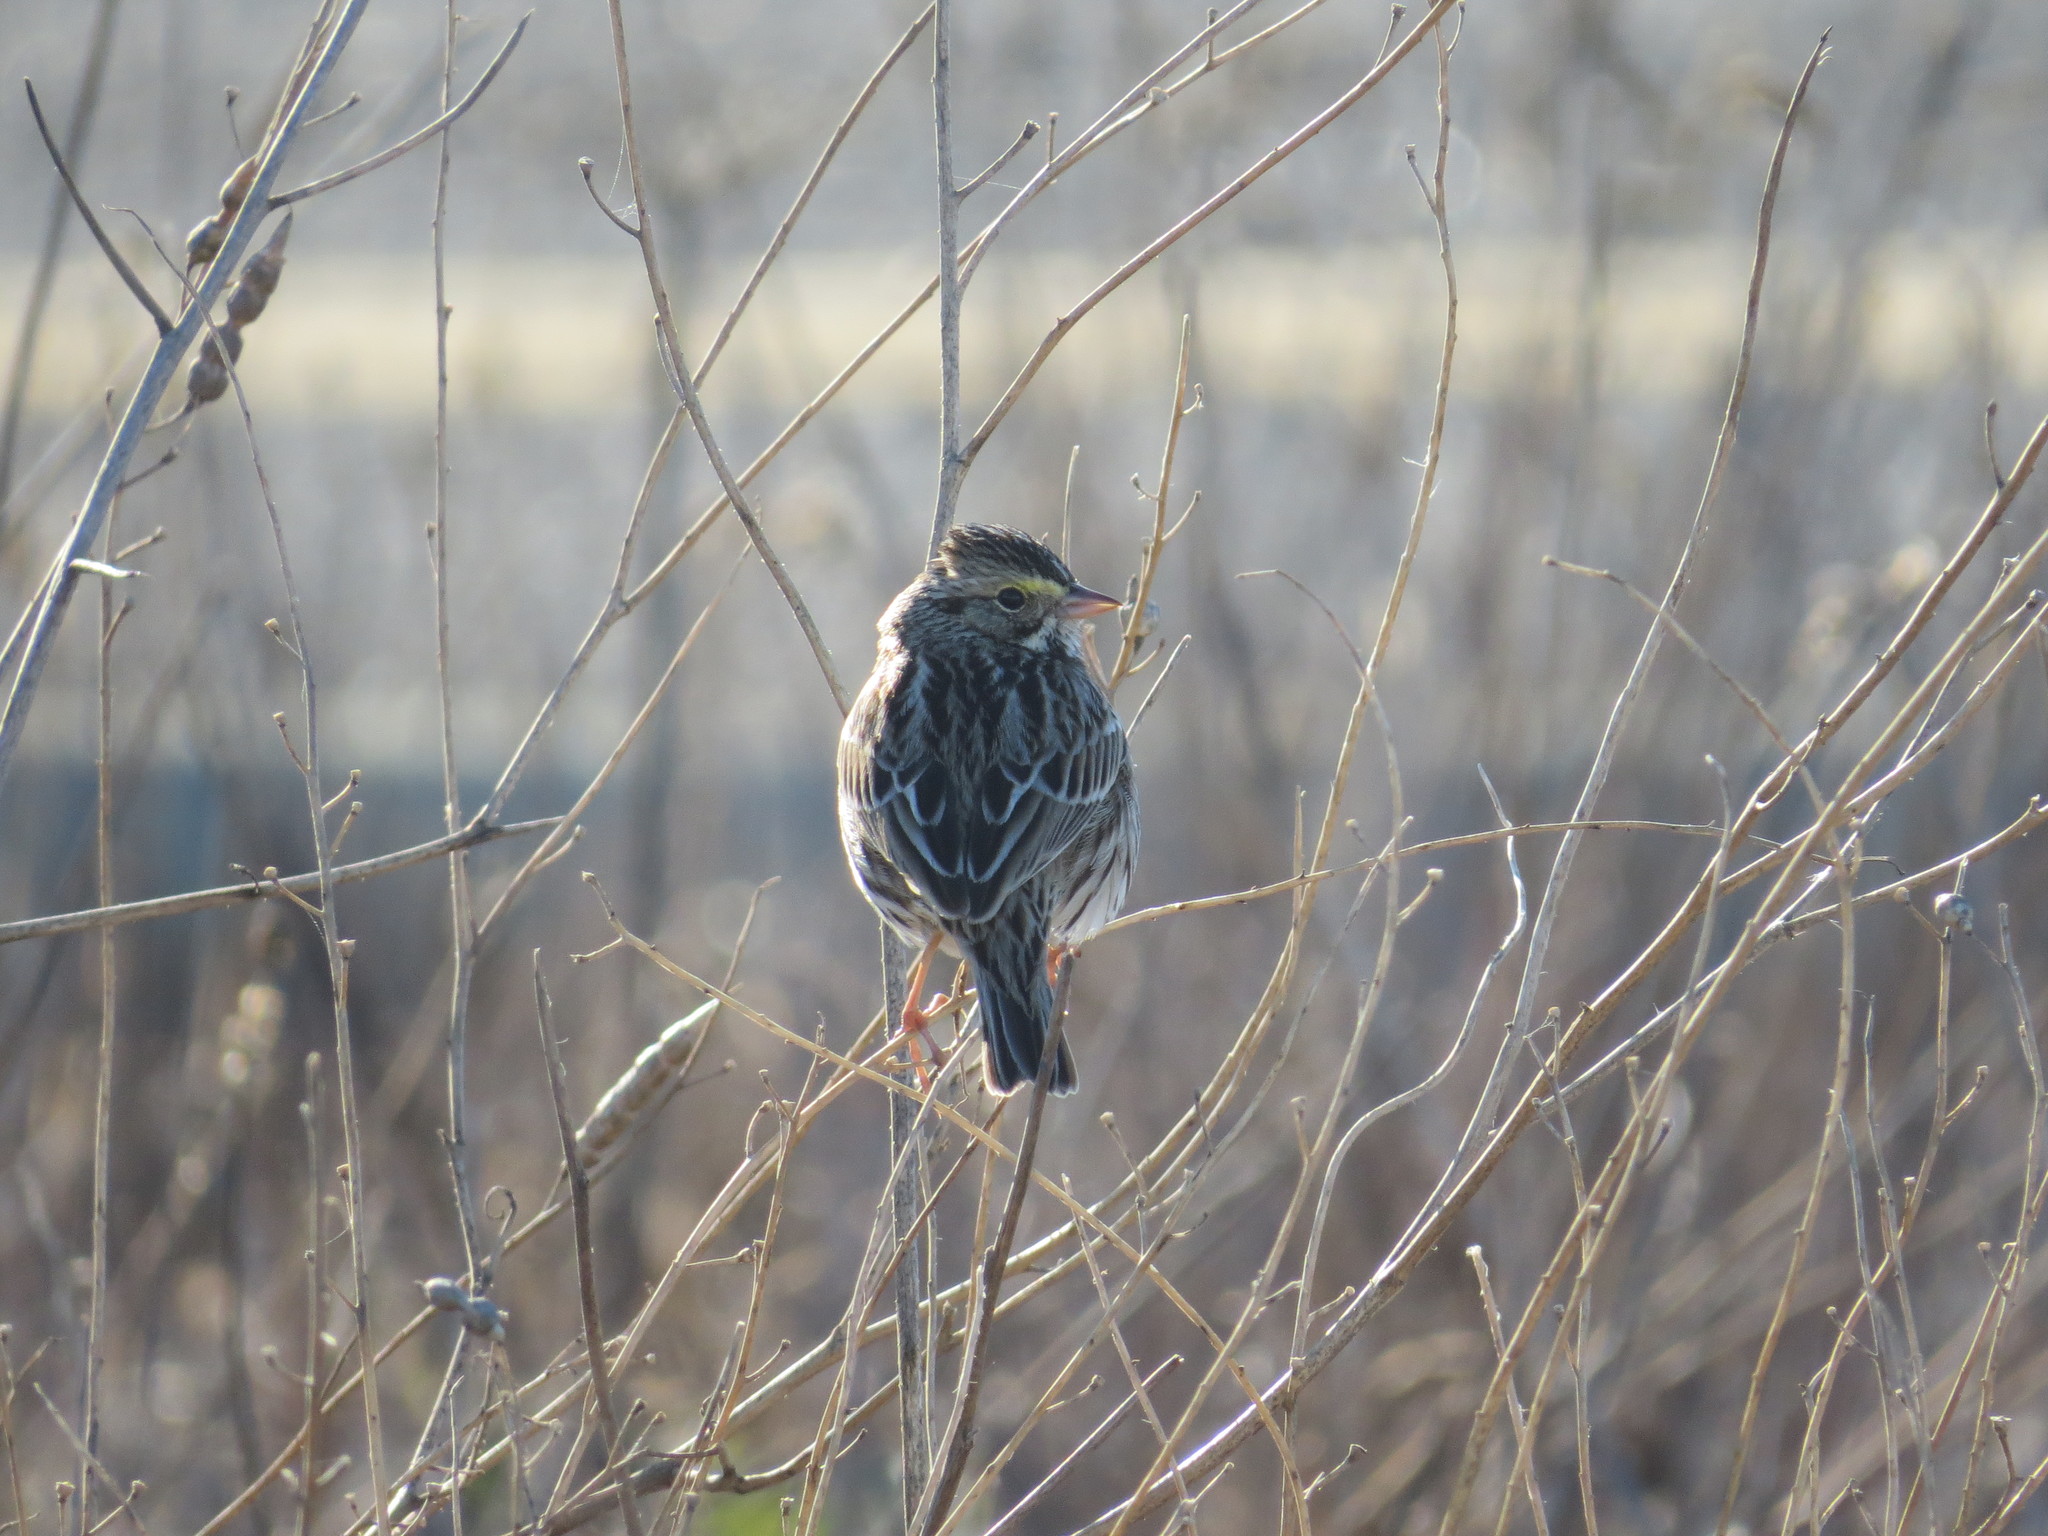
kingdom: Animalia
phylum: Chordata
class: Aves
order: Passeriformes
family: Passerellidae
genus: Passerculus
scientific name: Passerculus sandwichensis
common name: Savannah sparrow
